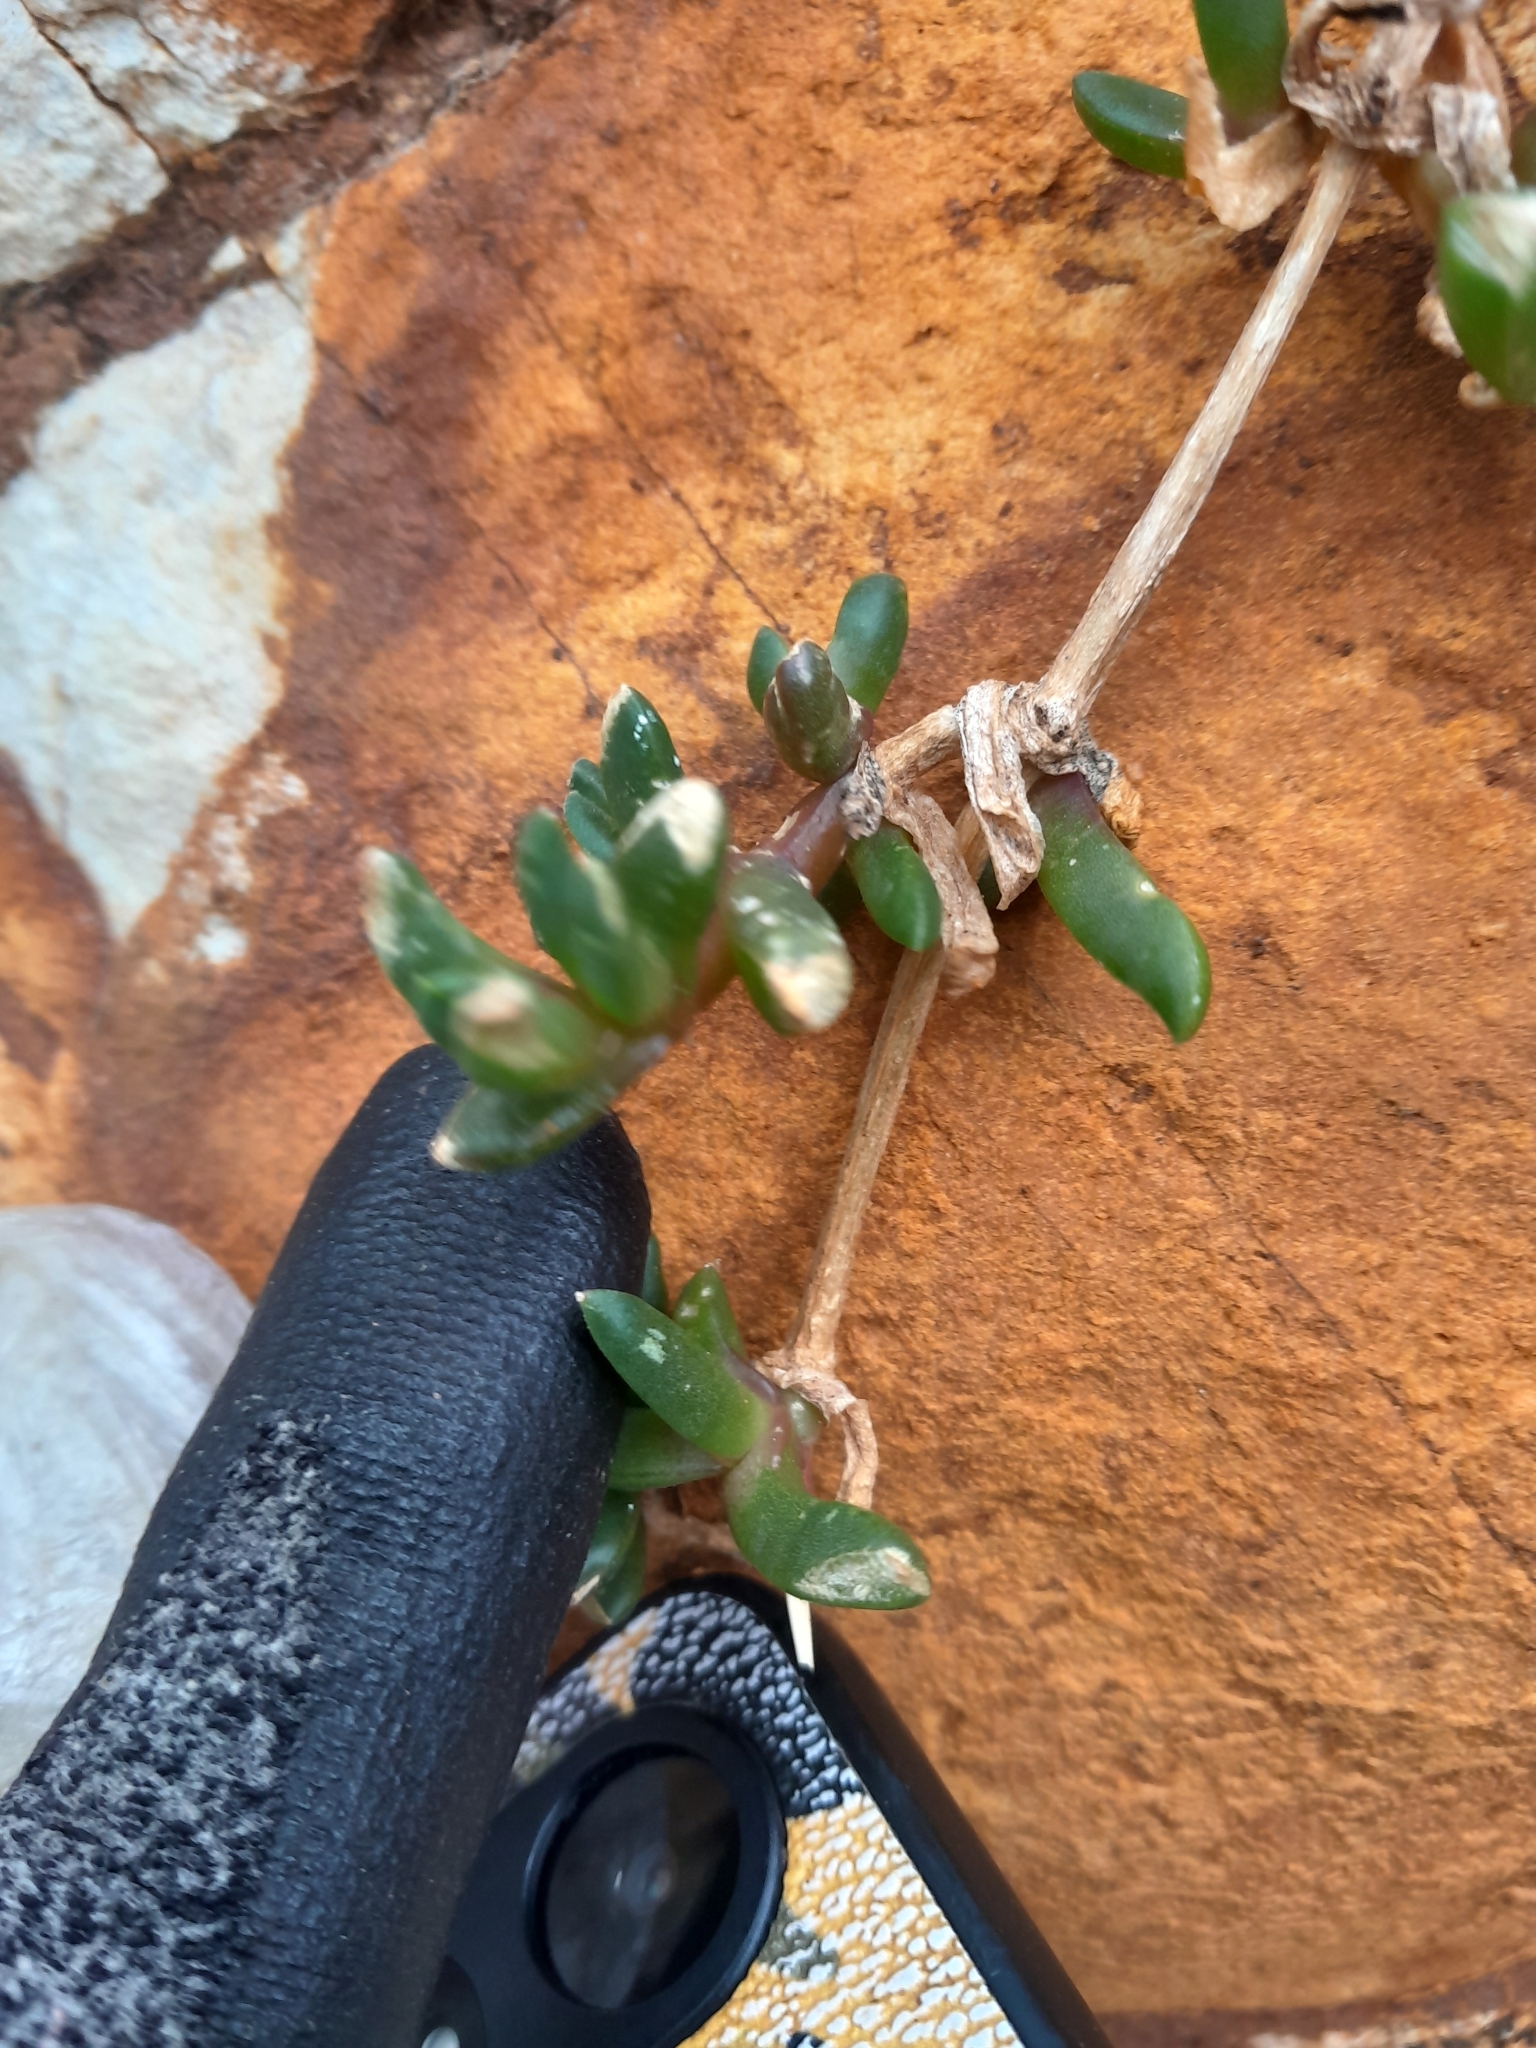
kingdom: Plantae
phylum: Tracheophyta
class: Magnoliopsida
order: Caryophyllales
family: Aizoaceae
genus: Disphyma
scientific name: Disphyma australe
